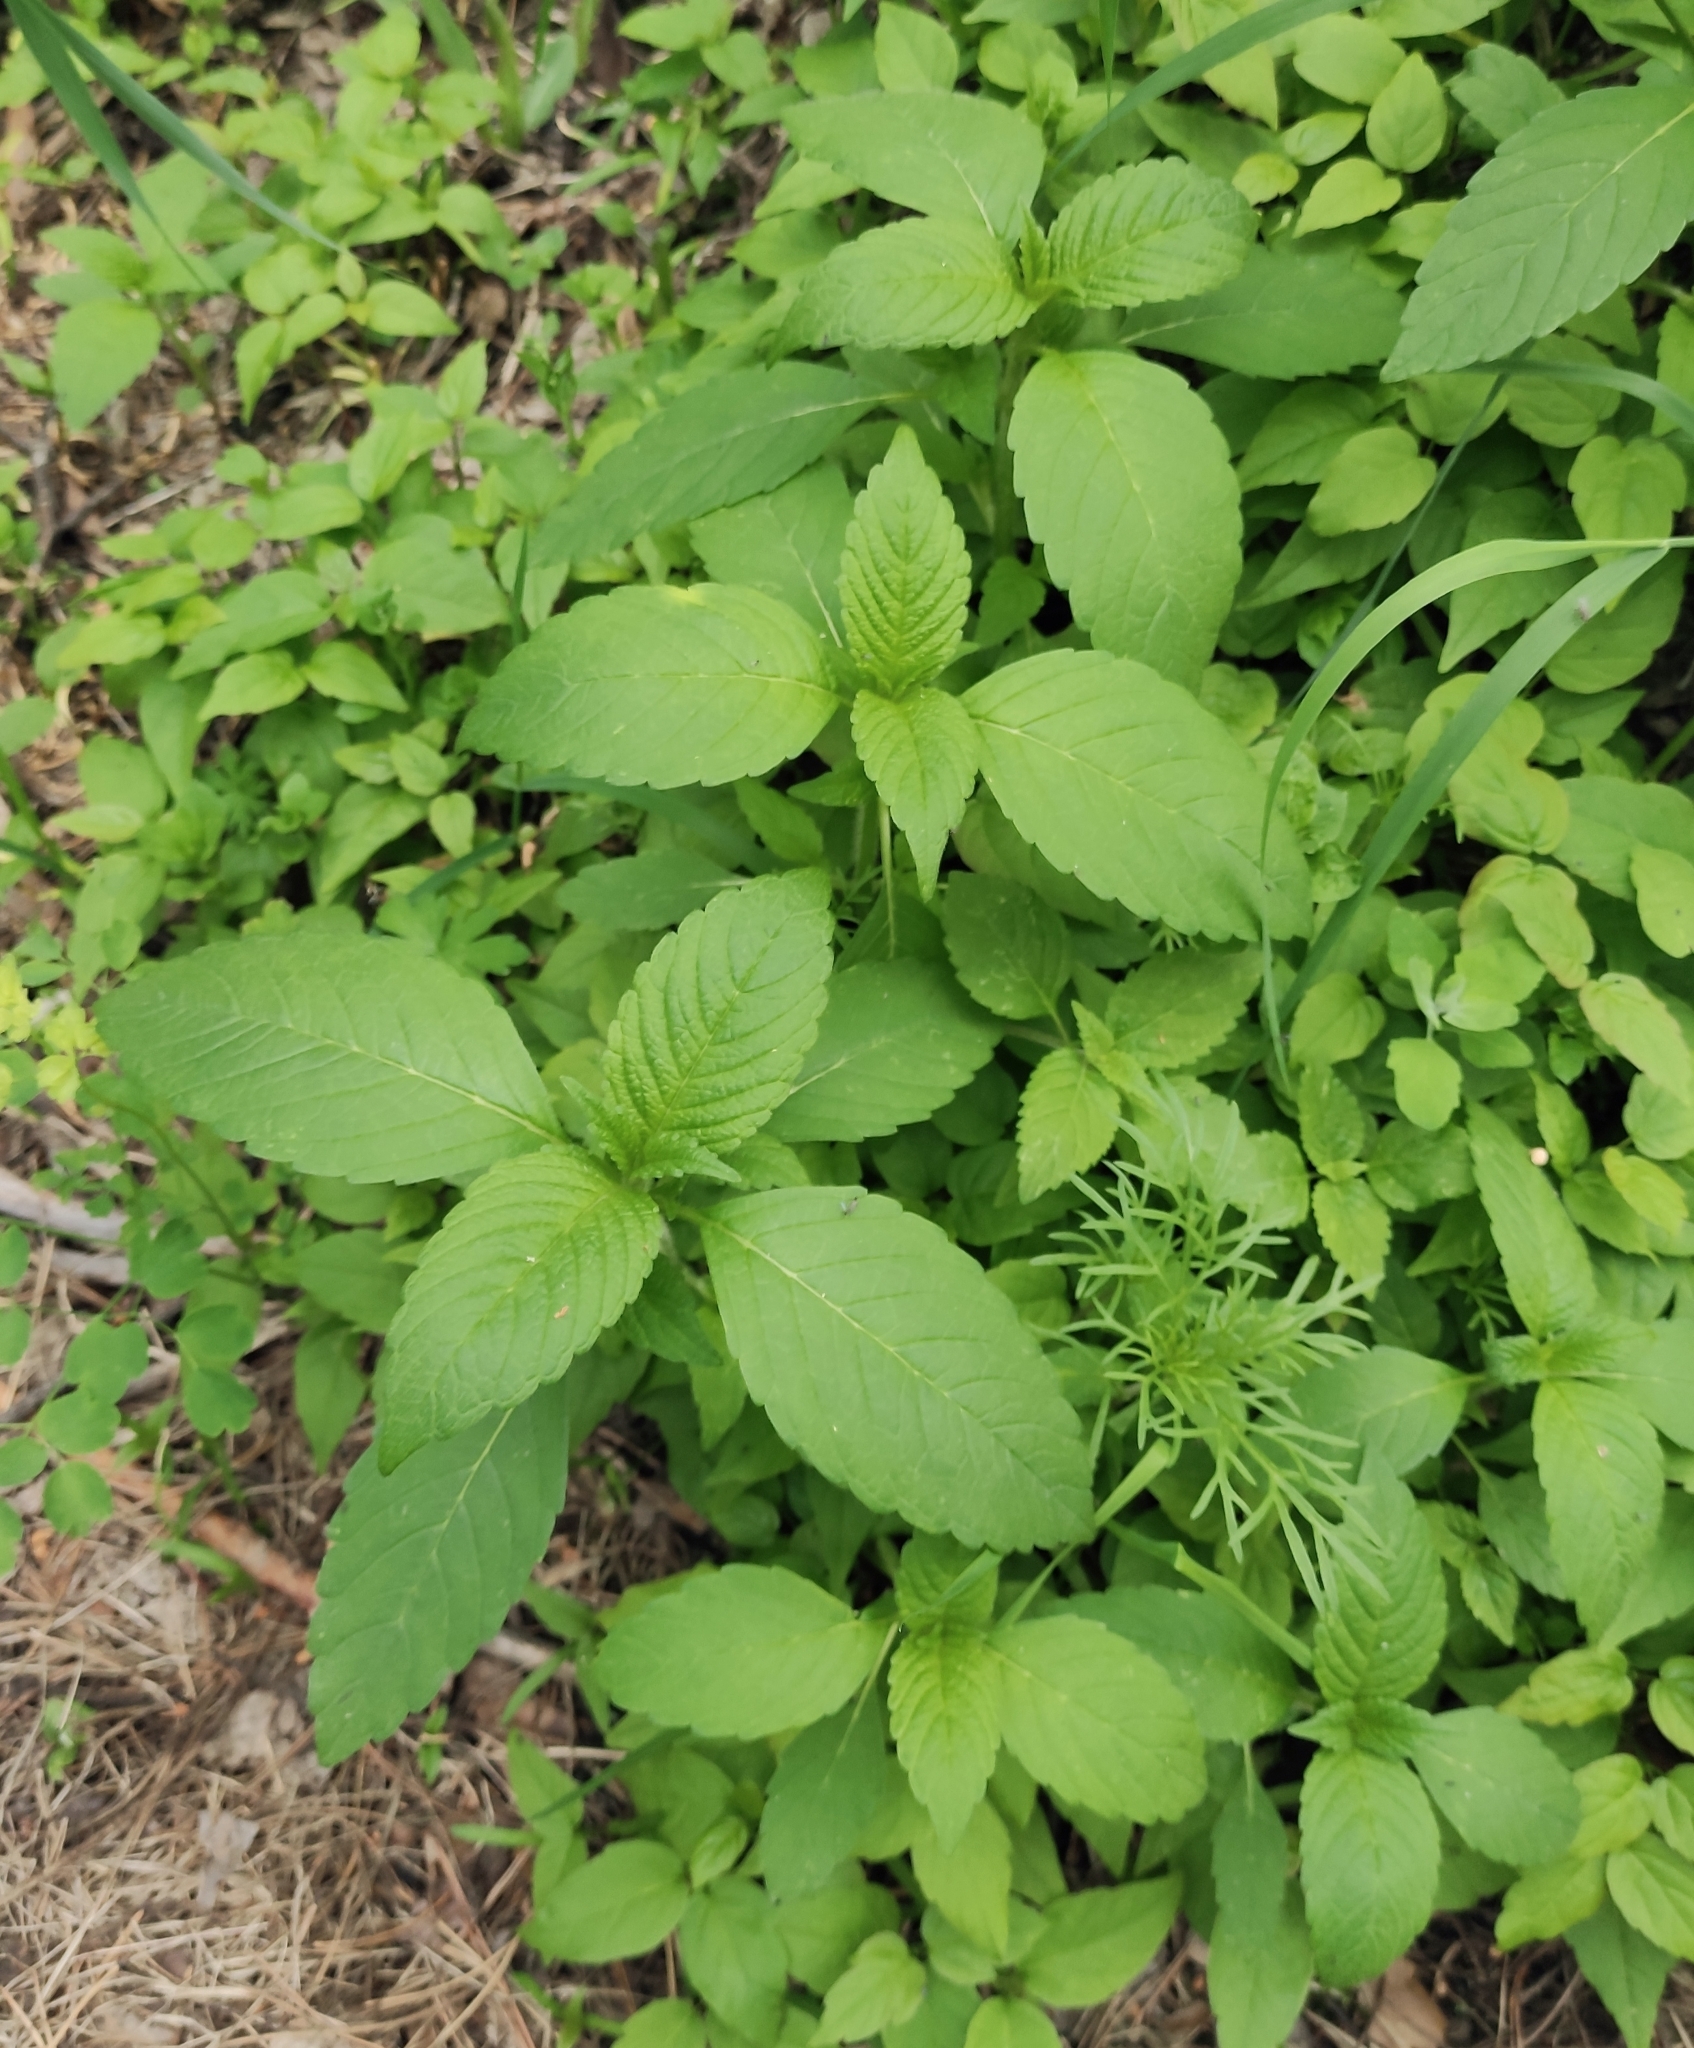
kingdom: Plantae
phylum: Tracheophyta
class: Magnoliopsida
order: Lamiales
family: Lamiaceae
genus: Galeopsis
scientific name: Galeopsis bifida
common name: Bifid hemp-nettle
